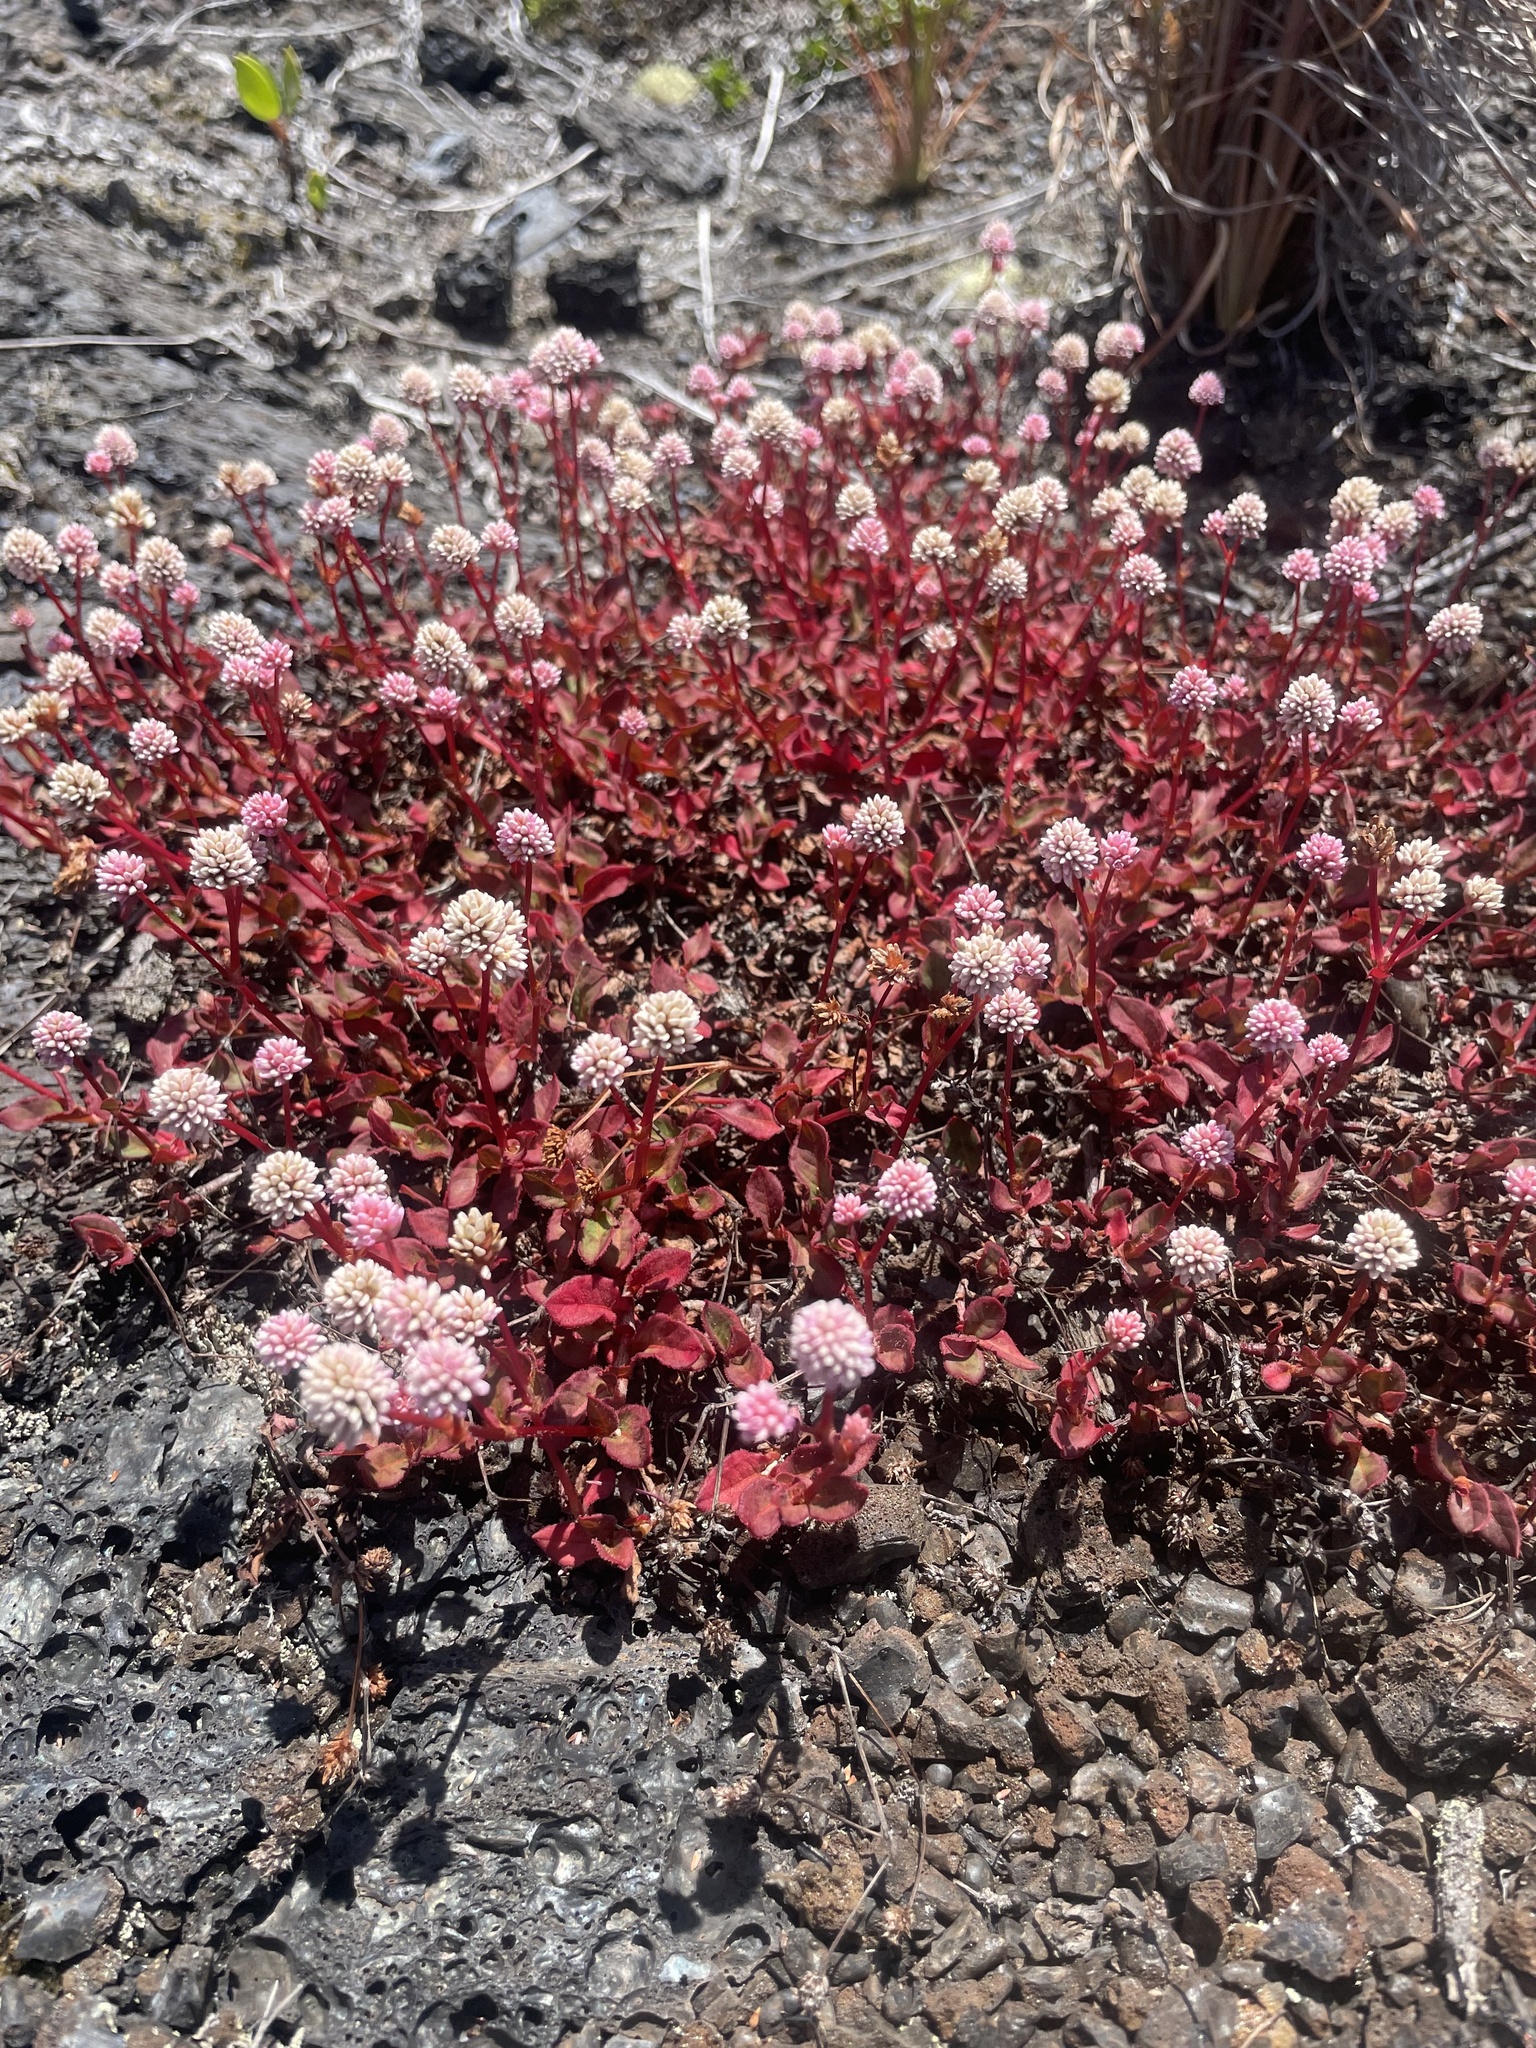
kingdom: Plantae
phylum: Tracheophyta
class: Magnoliopsida
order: Caryophyllales
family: Polygonaceae
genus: Persicaria
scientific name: Persicaria capitata
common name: Pinkhead smartweed
